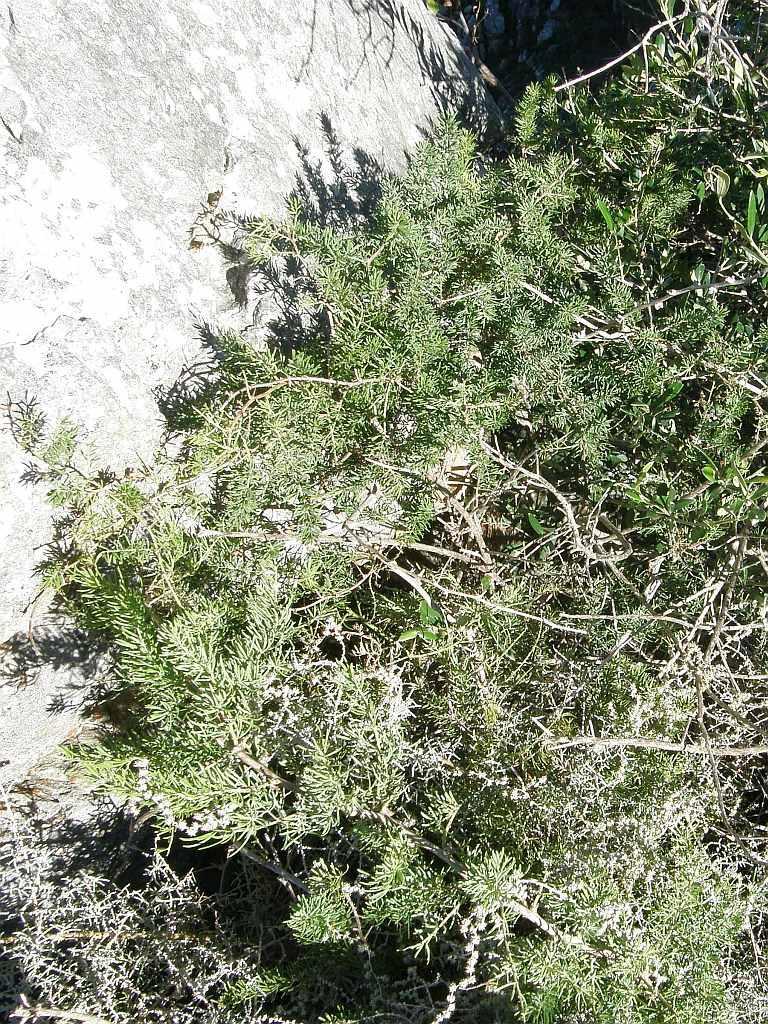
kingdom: Plantae
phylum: Tracheophyta
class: Liliopsida
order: Asparagales
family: Asparagaceae
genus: Asparagus
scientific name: Asparagus aethiopicus
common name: Sprenger's asparagus fern
